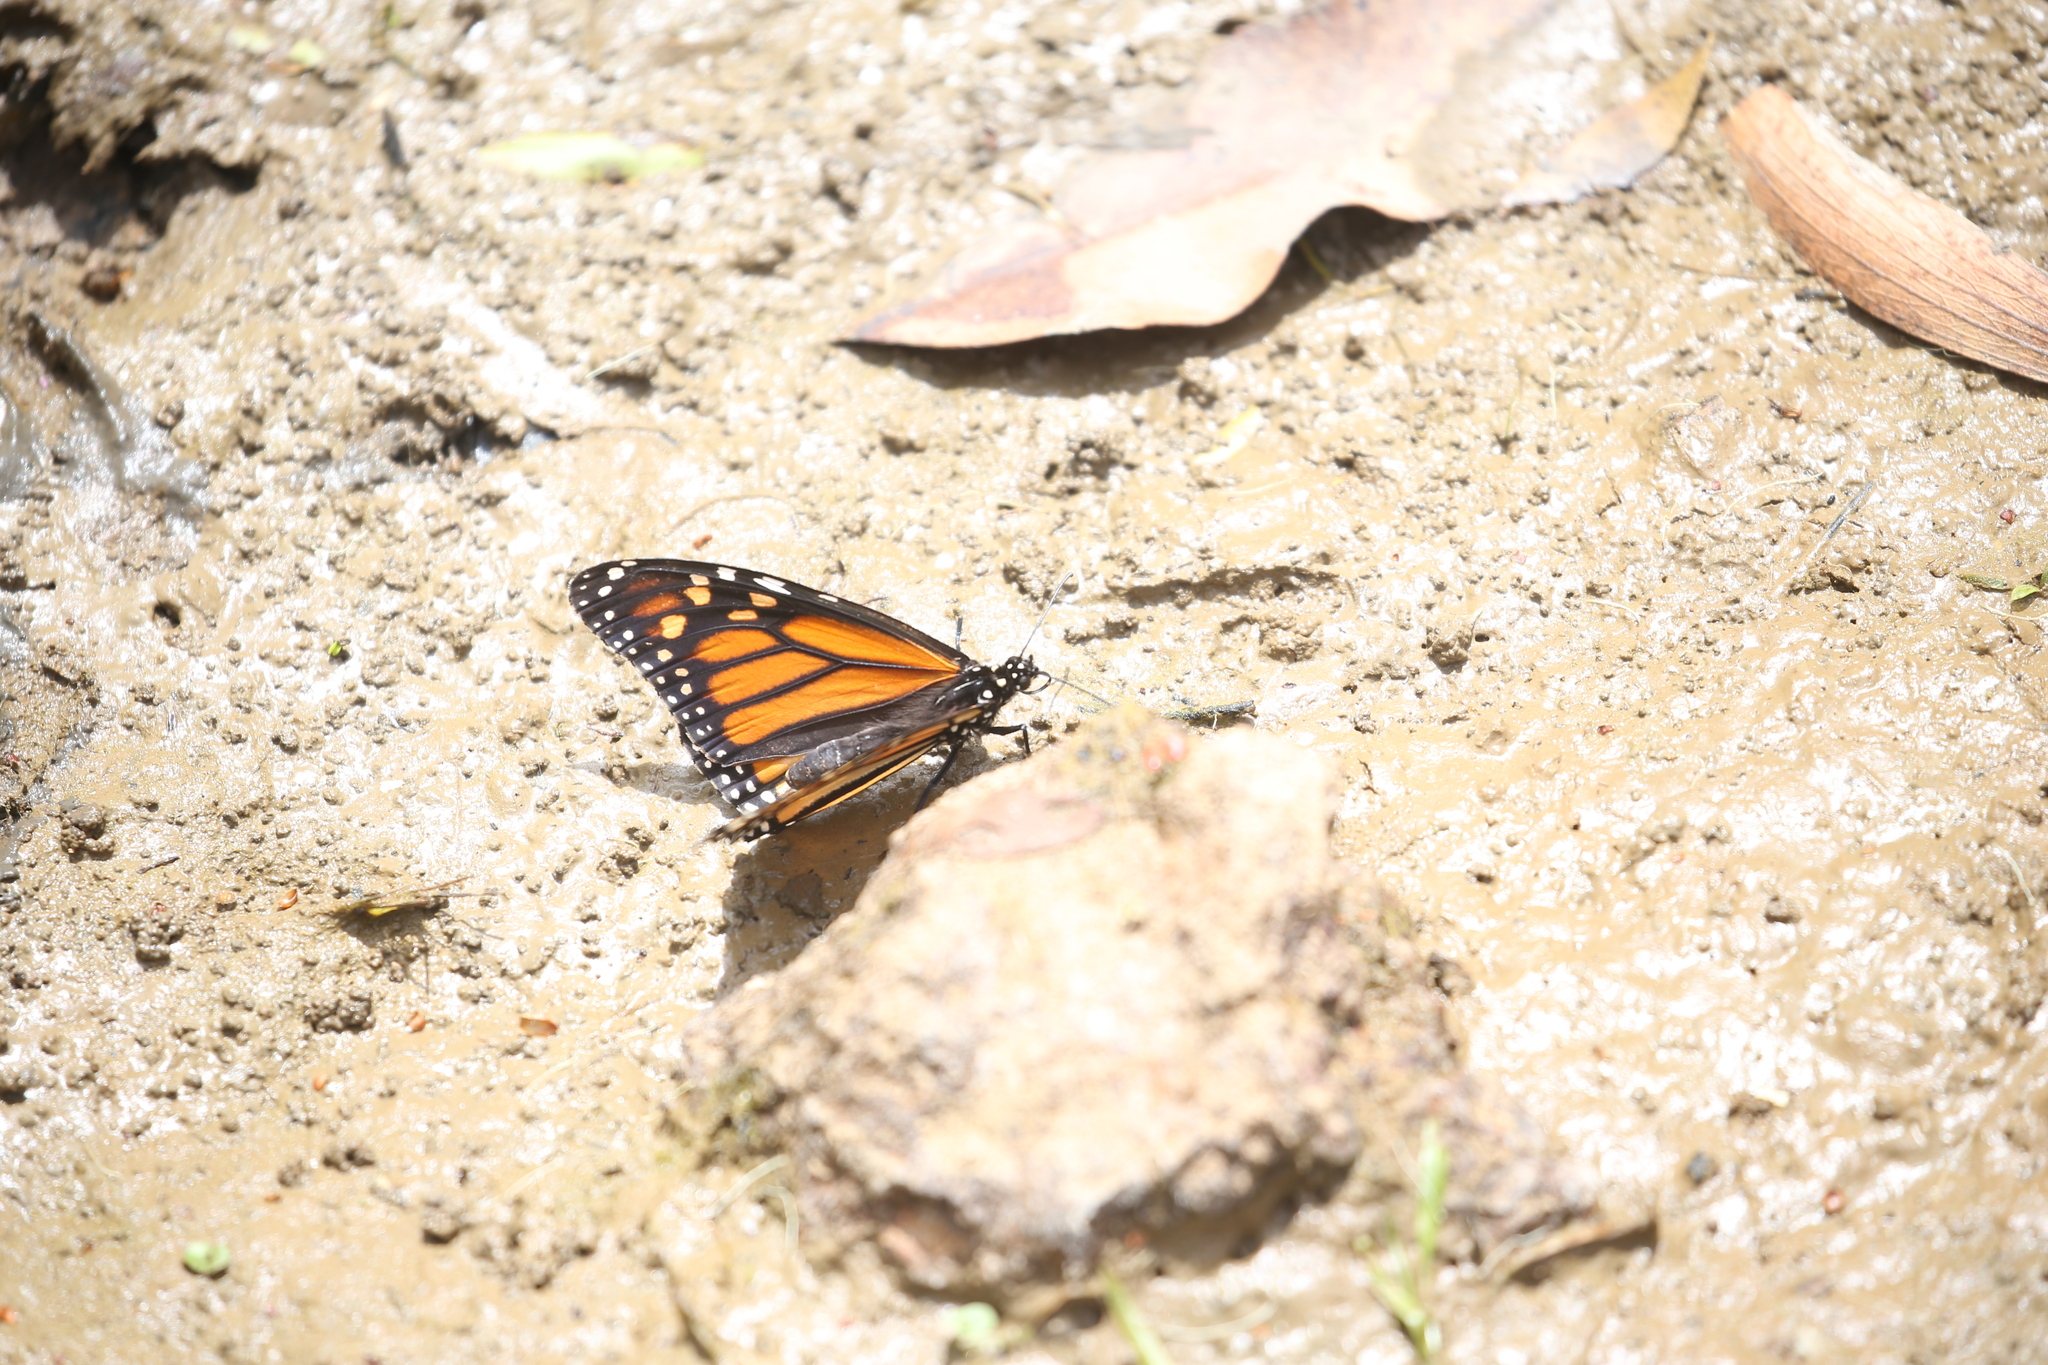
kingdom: Animalia
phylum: Arthropoda
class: Insecta
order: Lepidoptera
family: Nymphalidae
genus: Danaus
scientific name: Danaus plexippus
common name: Monarch
